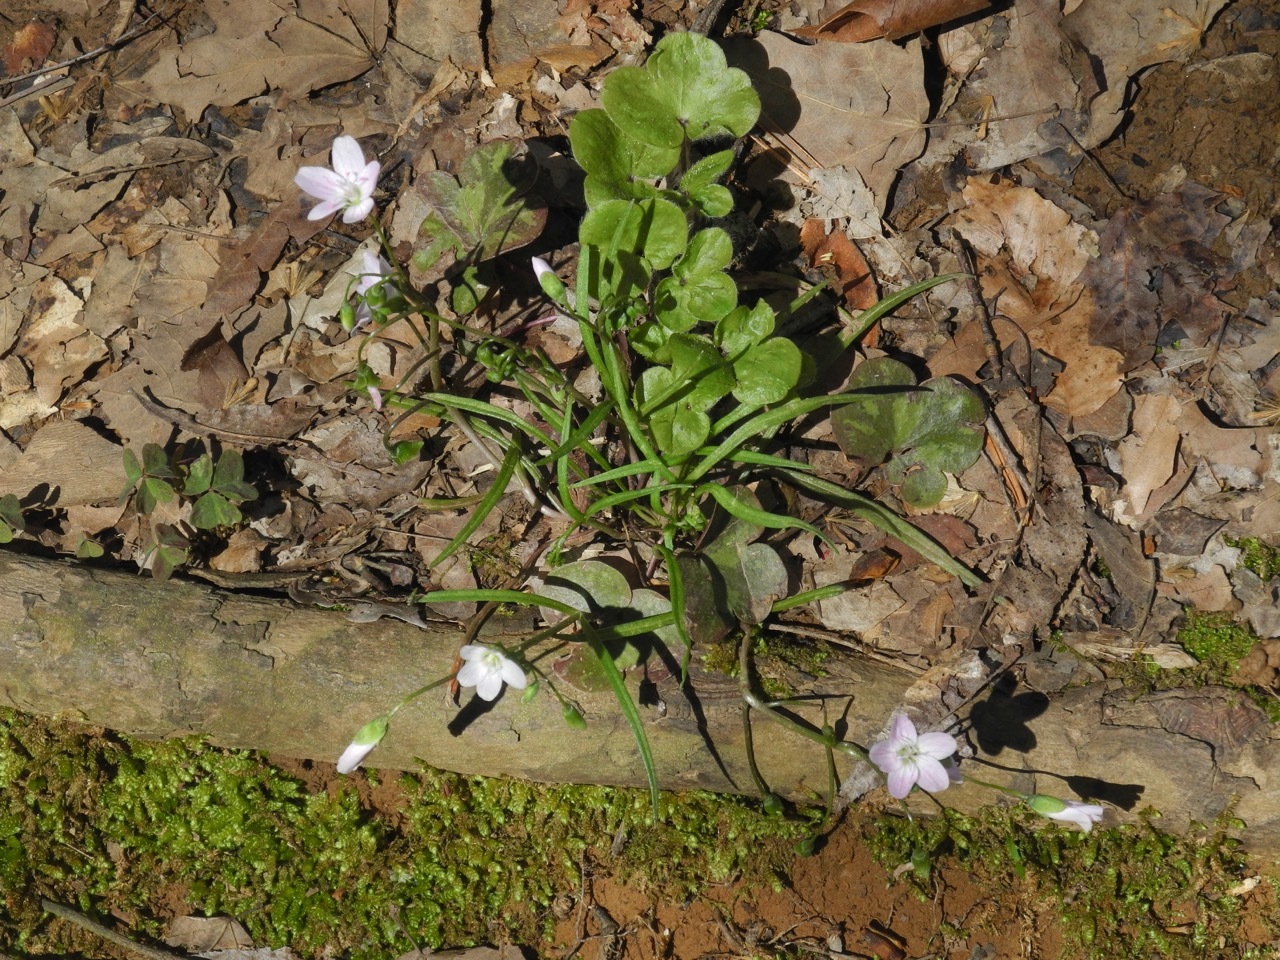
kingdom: Plantae
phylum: Tracheophyta
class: Magnoliopsida
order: Ranunculales
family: Ranunculaceae
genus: Hepatica
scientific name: Hepatica americana
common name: American hepatica
